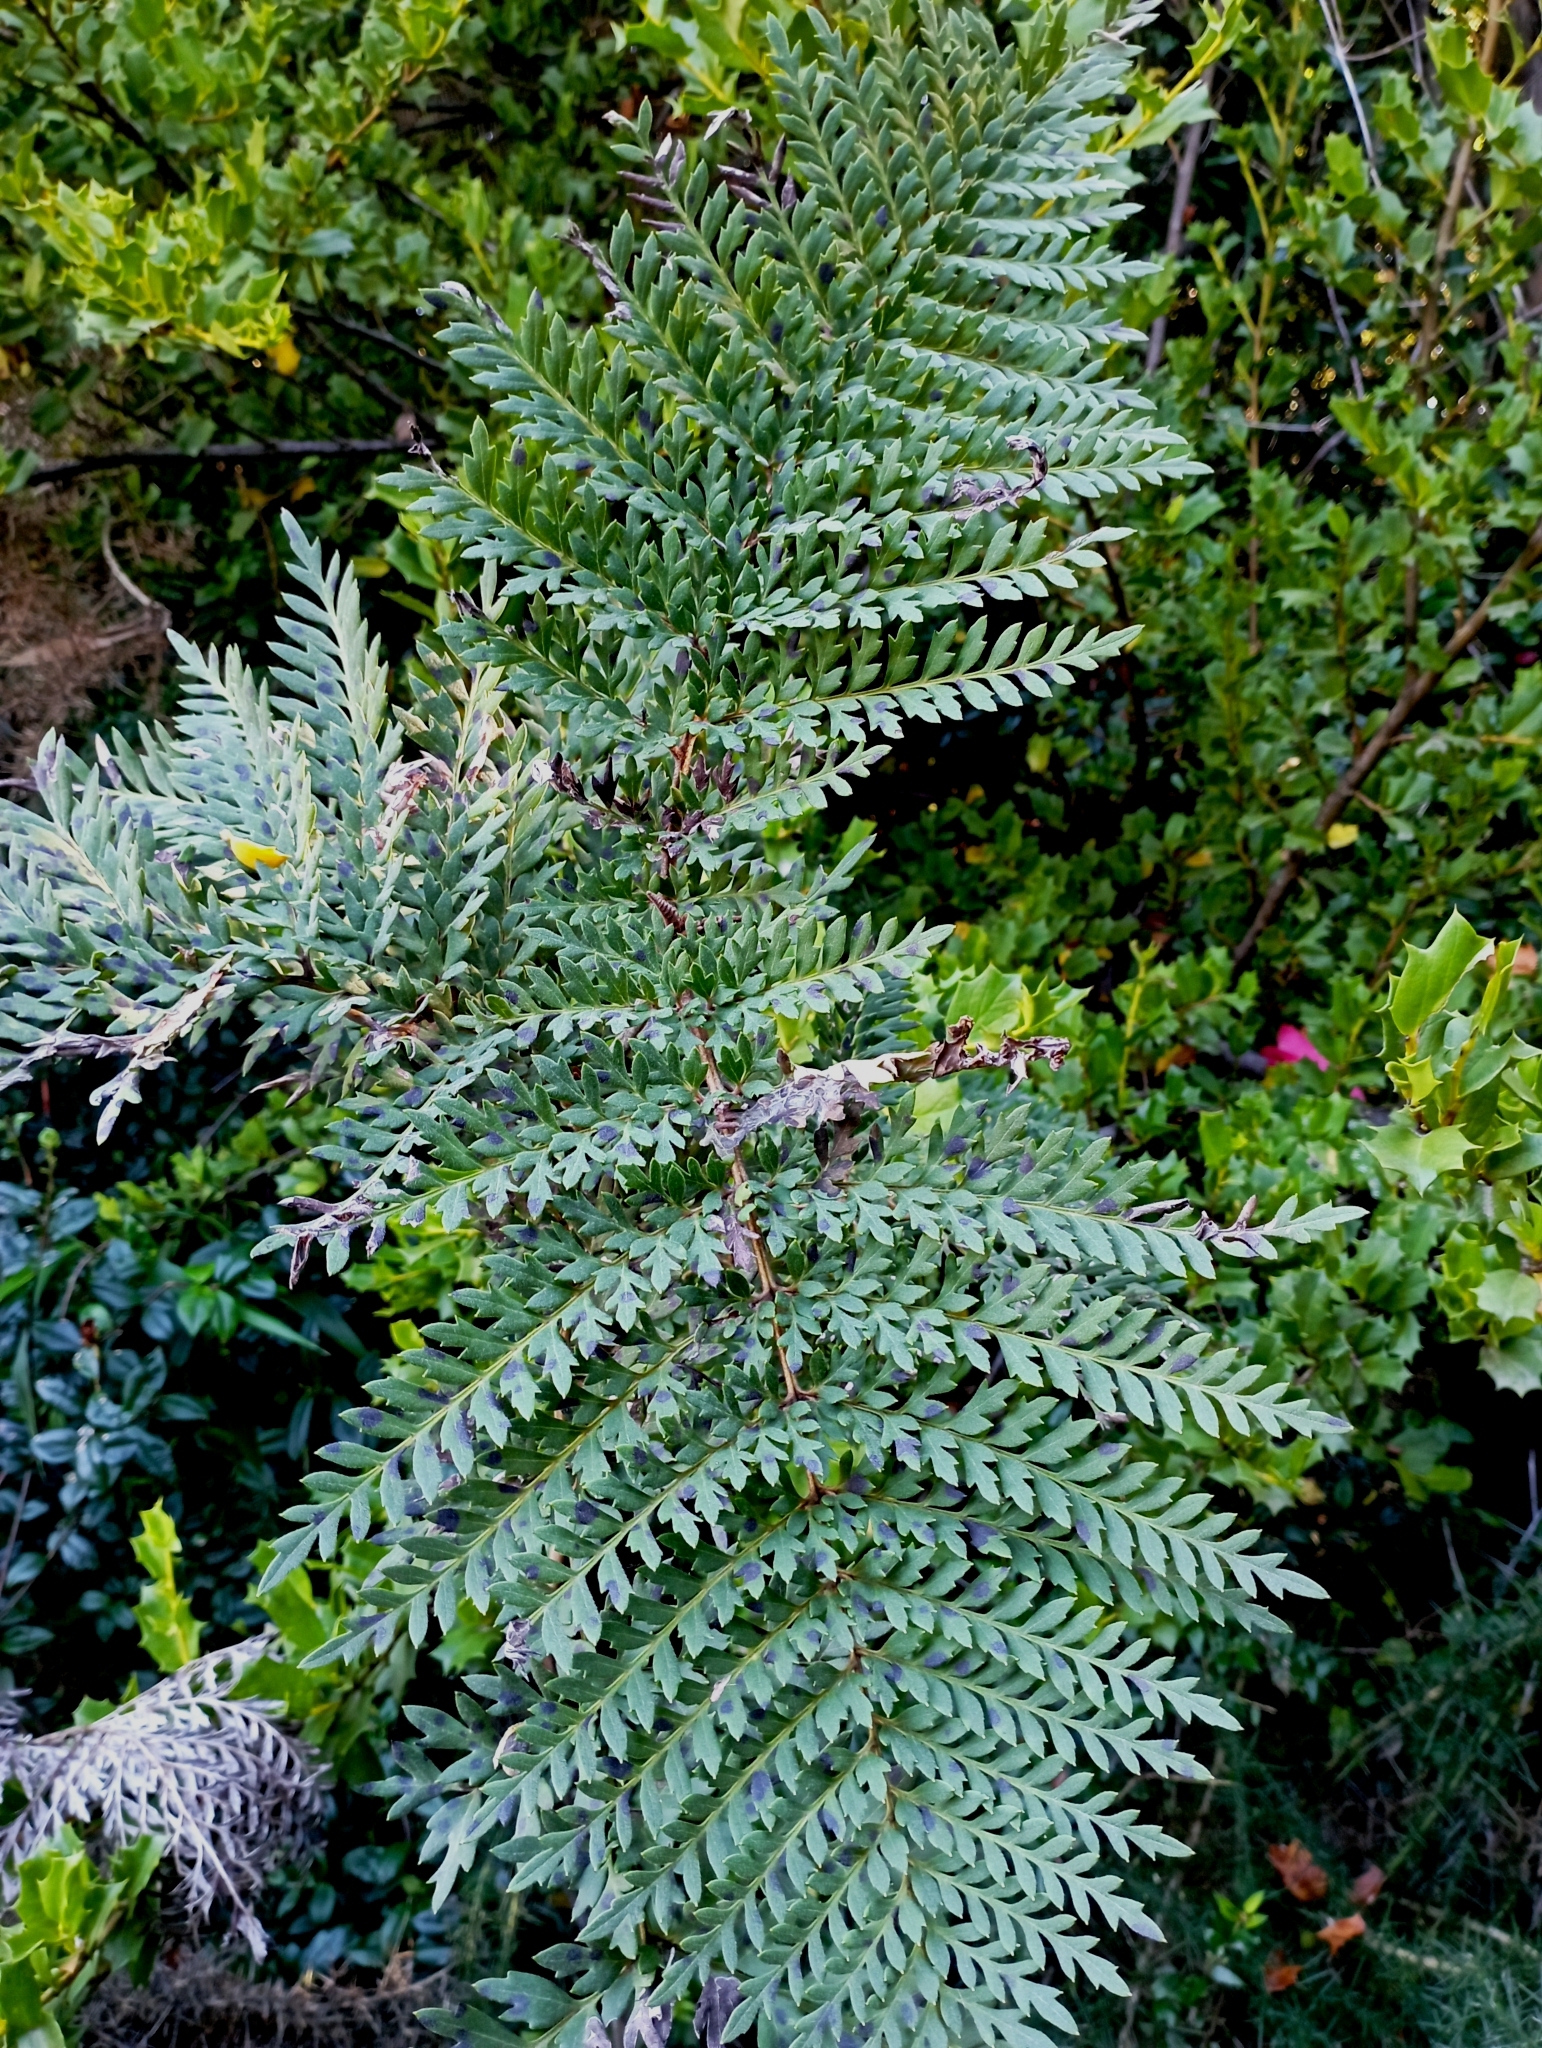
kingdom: Plantae
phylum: Tracheophyta
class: Magnoliopsida
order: Proteales
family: Proteaceae
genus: Lomatia
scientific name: Lomatia ferruginea
